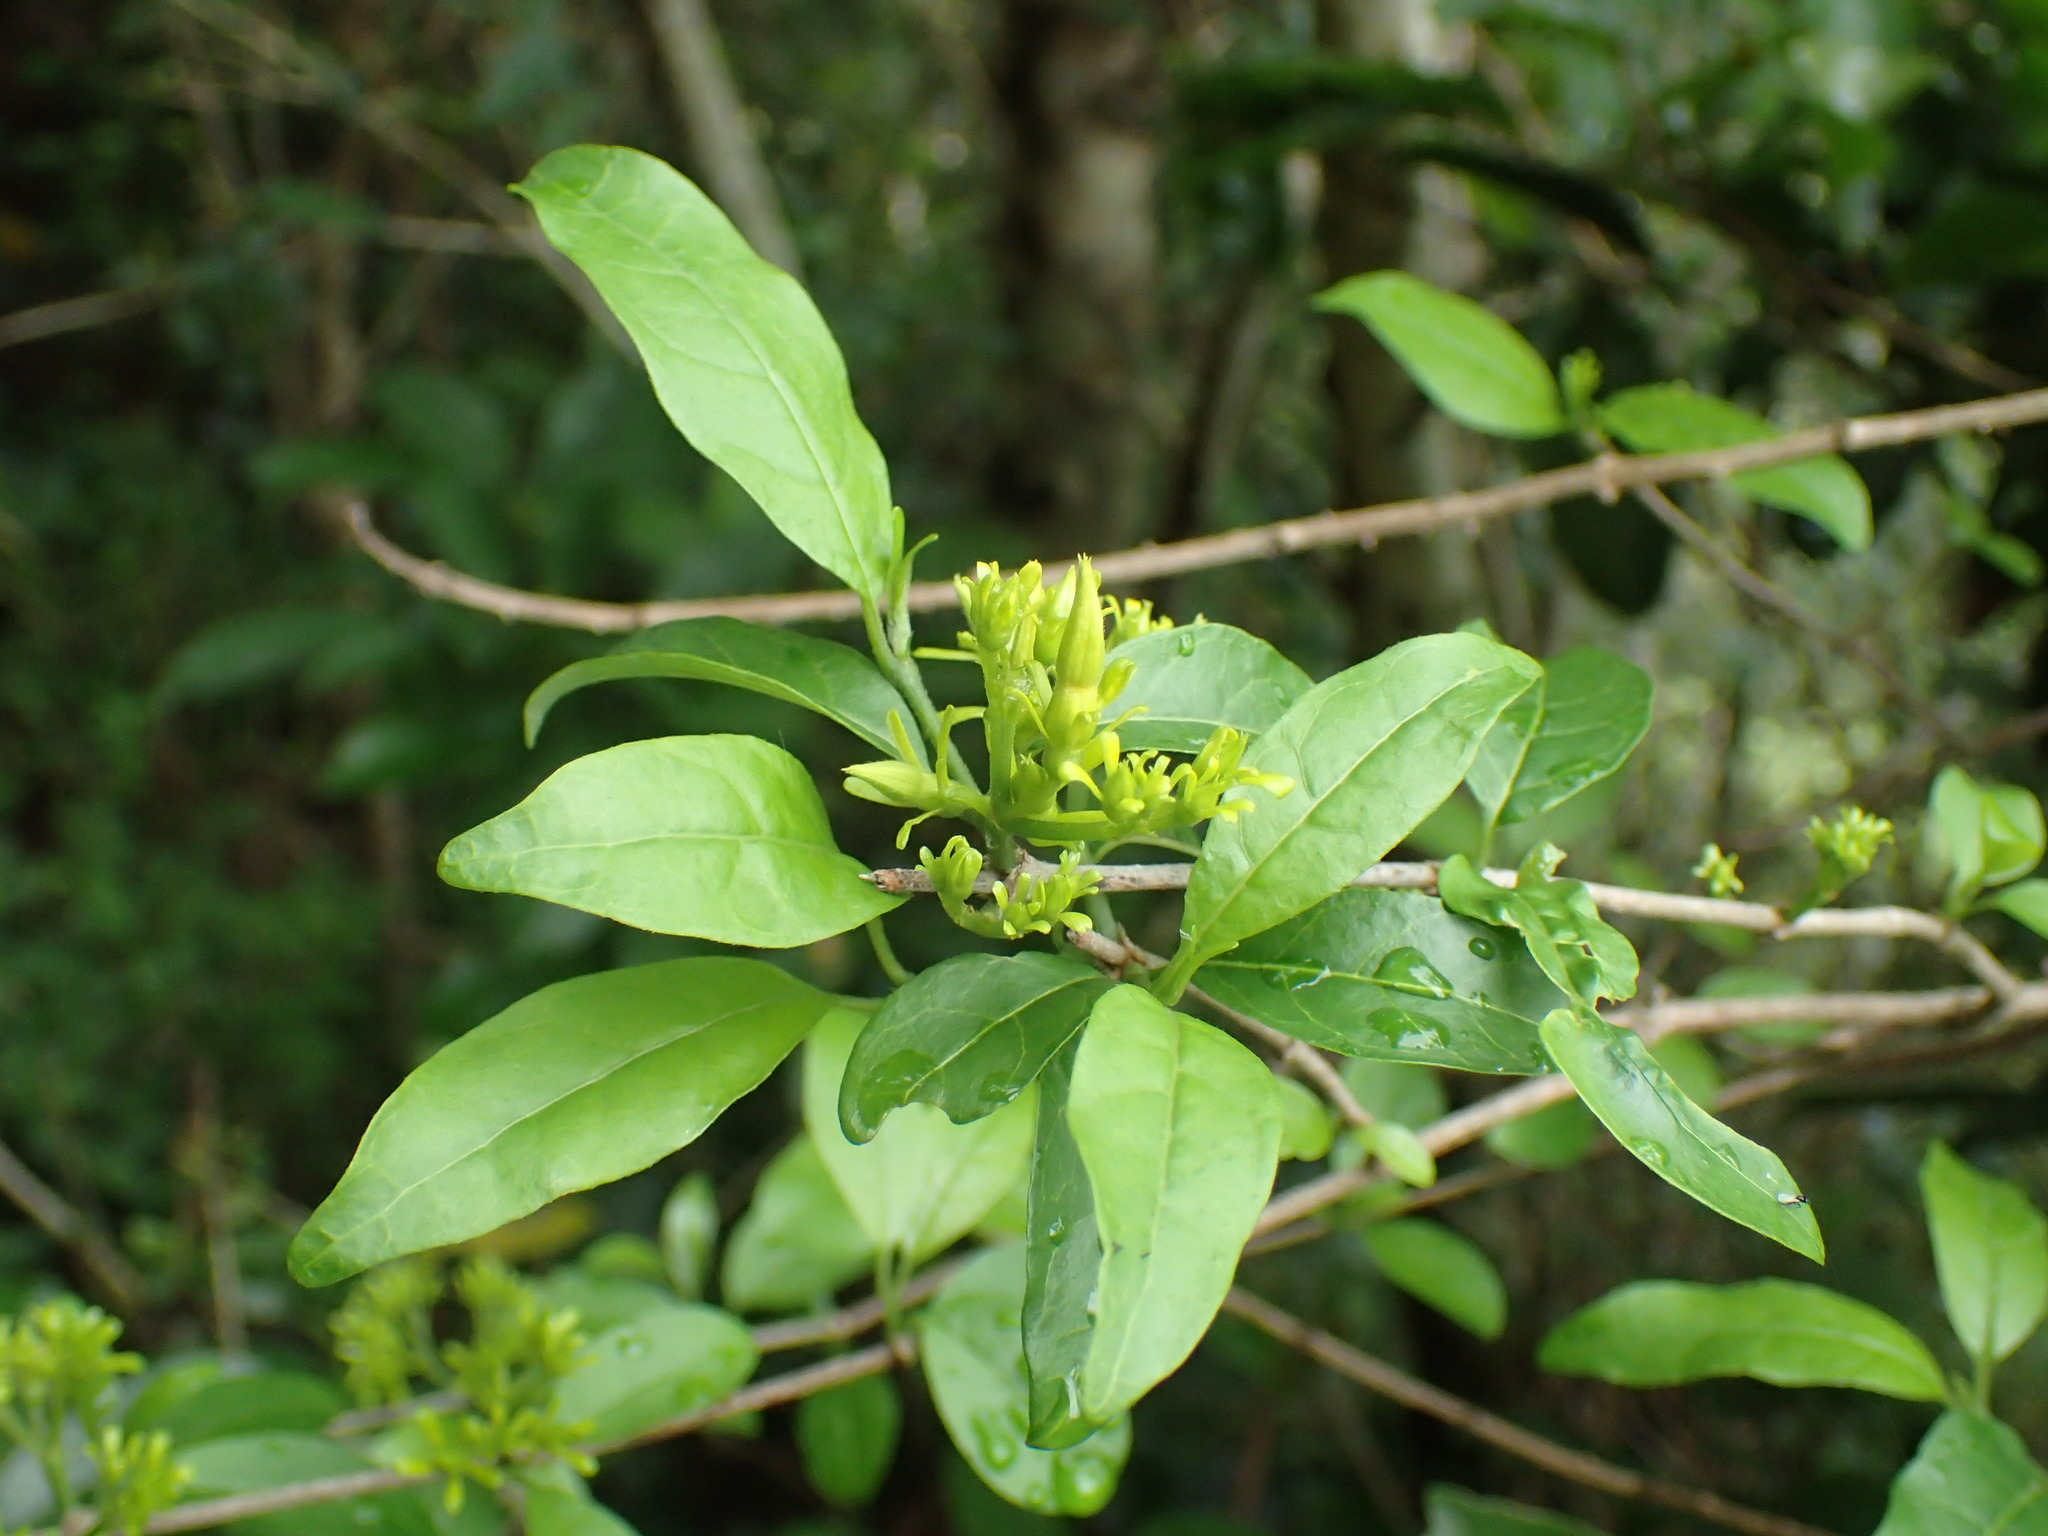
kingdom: Plantae
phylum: Tracheophyta
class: Magnoliopsida
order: Gentianales
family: Rubiaceae
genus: Vangueria
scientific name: Vangueria lasiantha
